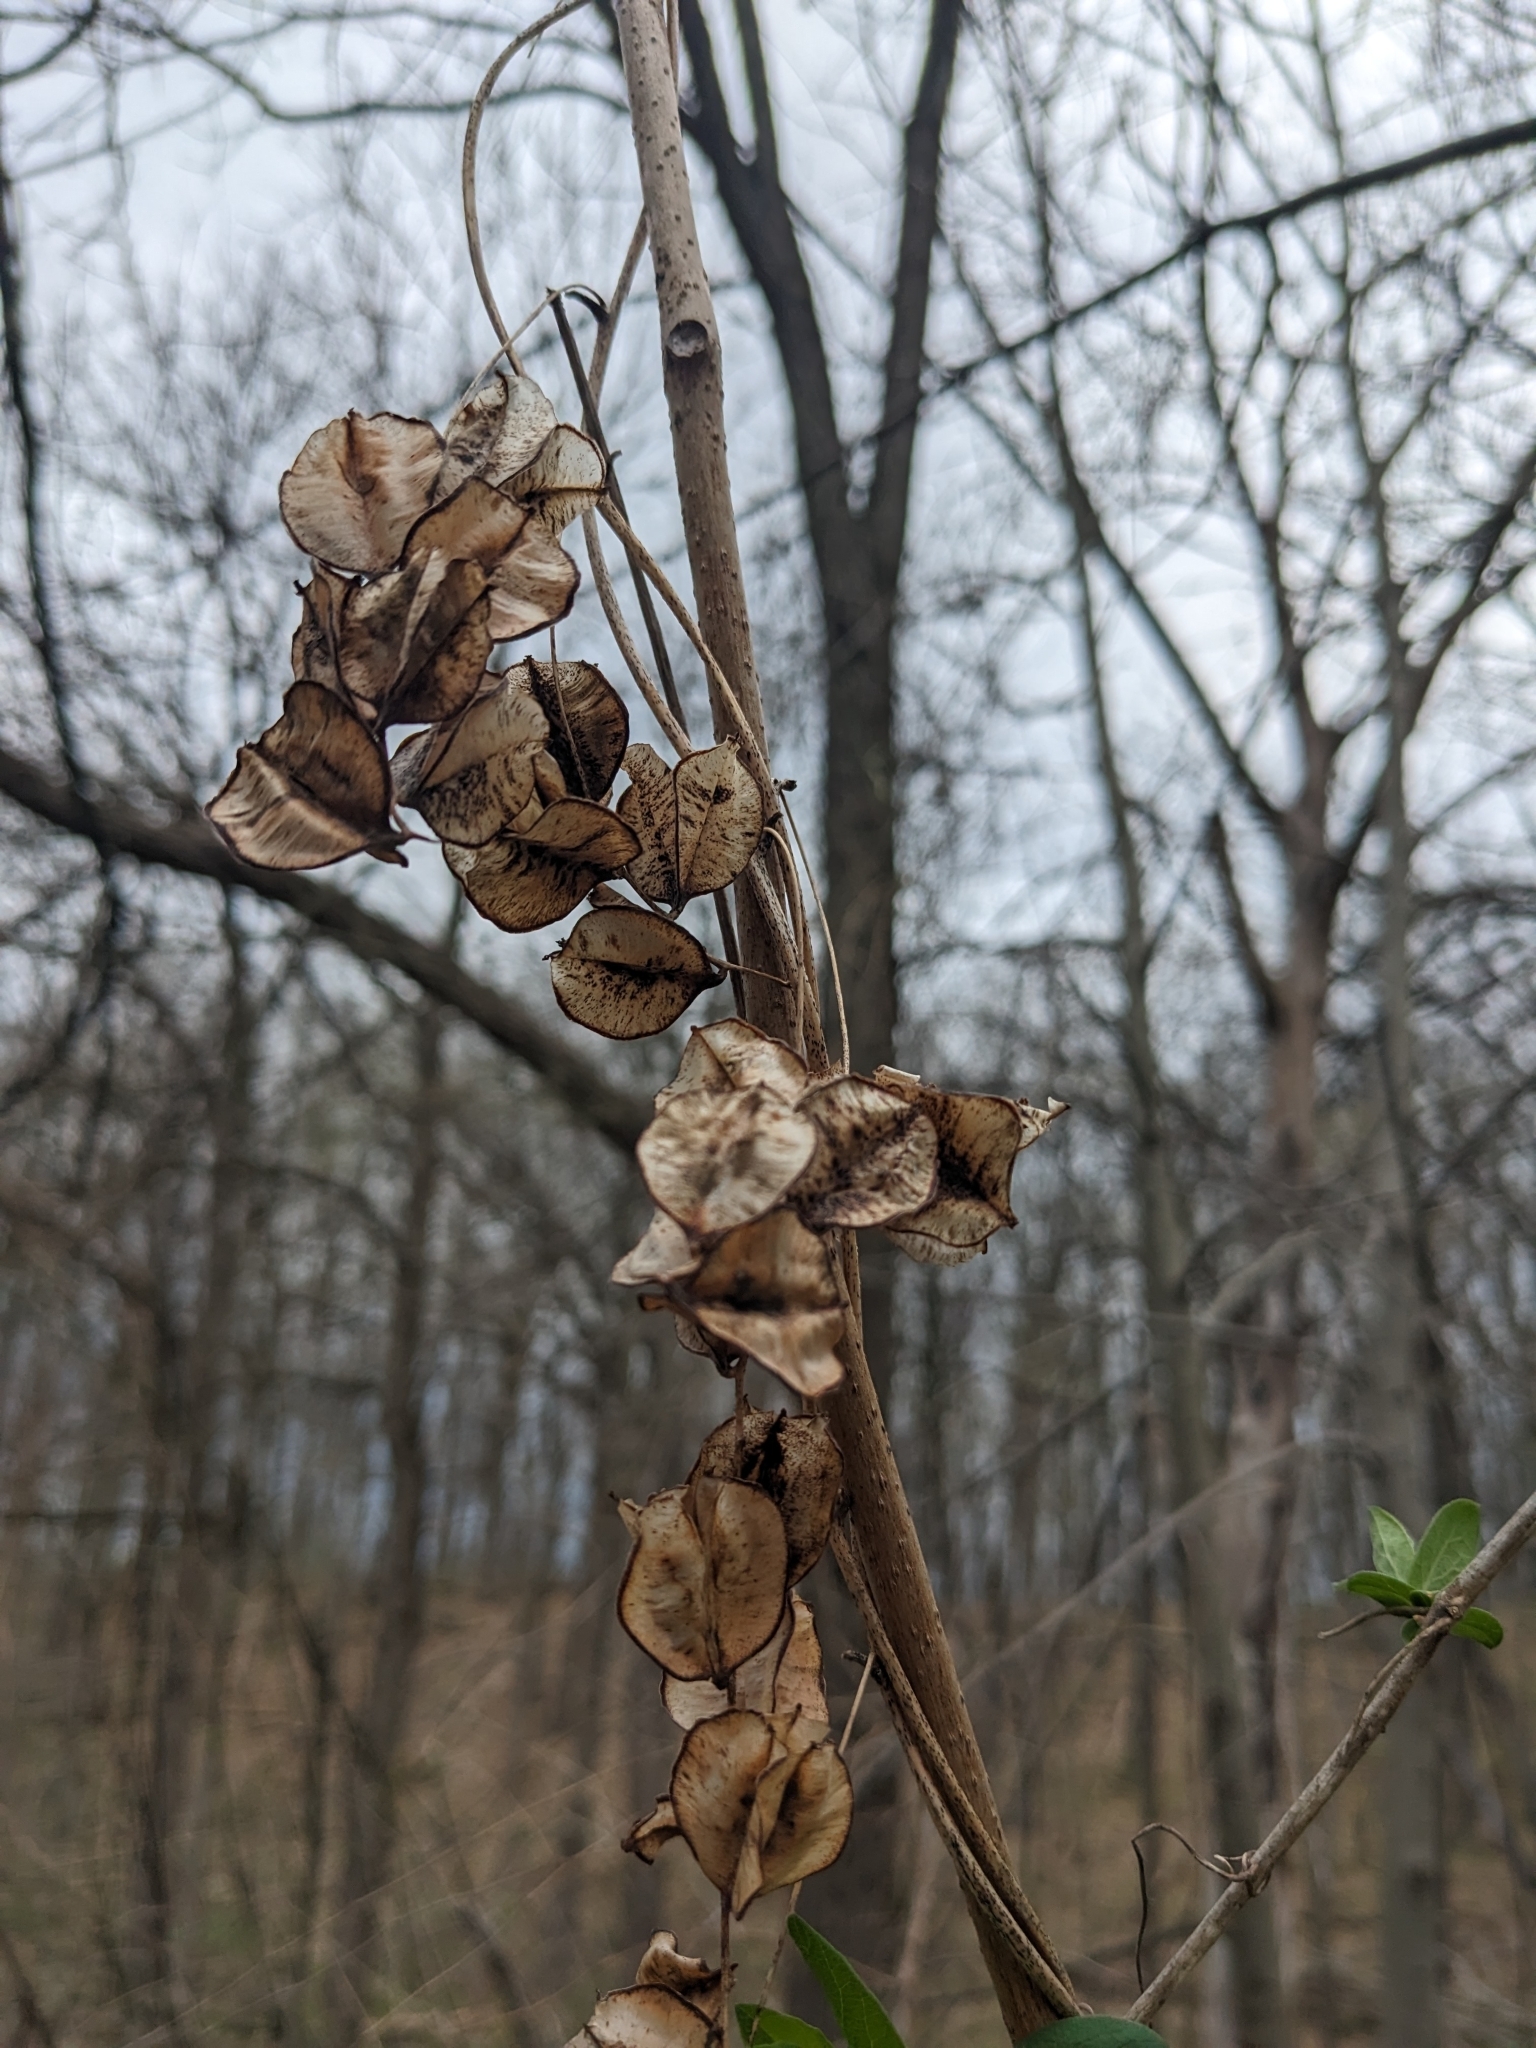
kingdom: Plantae
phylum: Tracheophyta
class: Liliopsida
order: Dioscoreales
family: Dioscoreaceae
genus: Dioscorea
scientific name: Dioscorea villosa
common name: Wild yam
